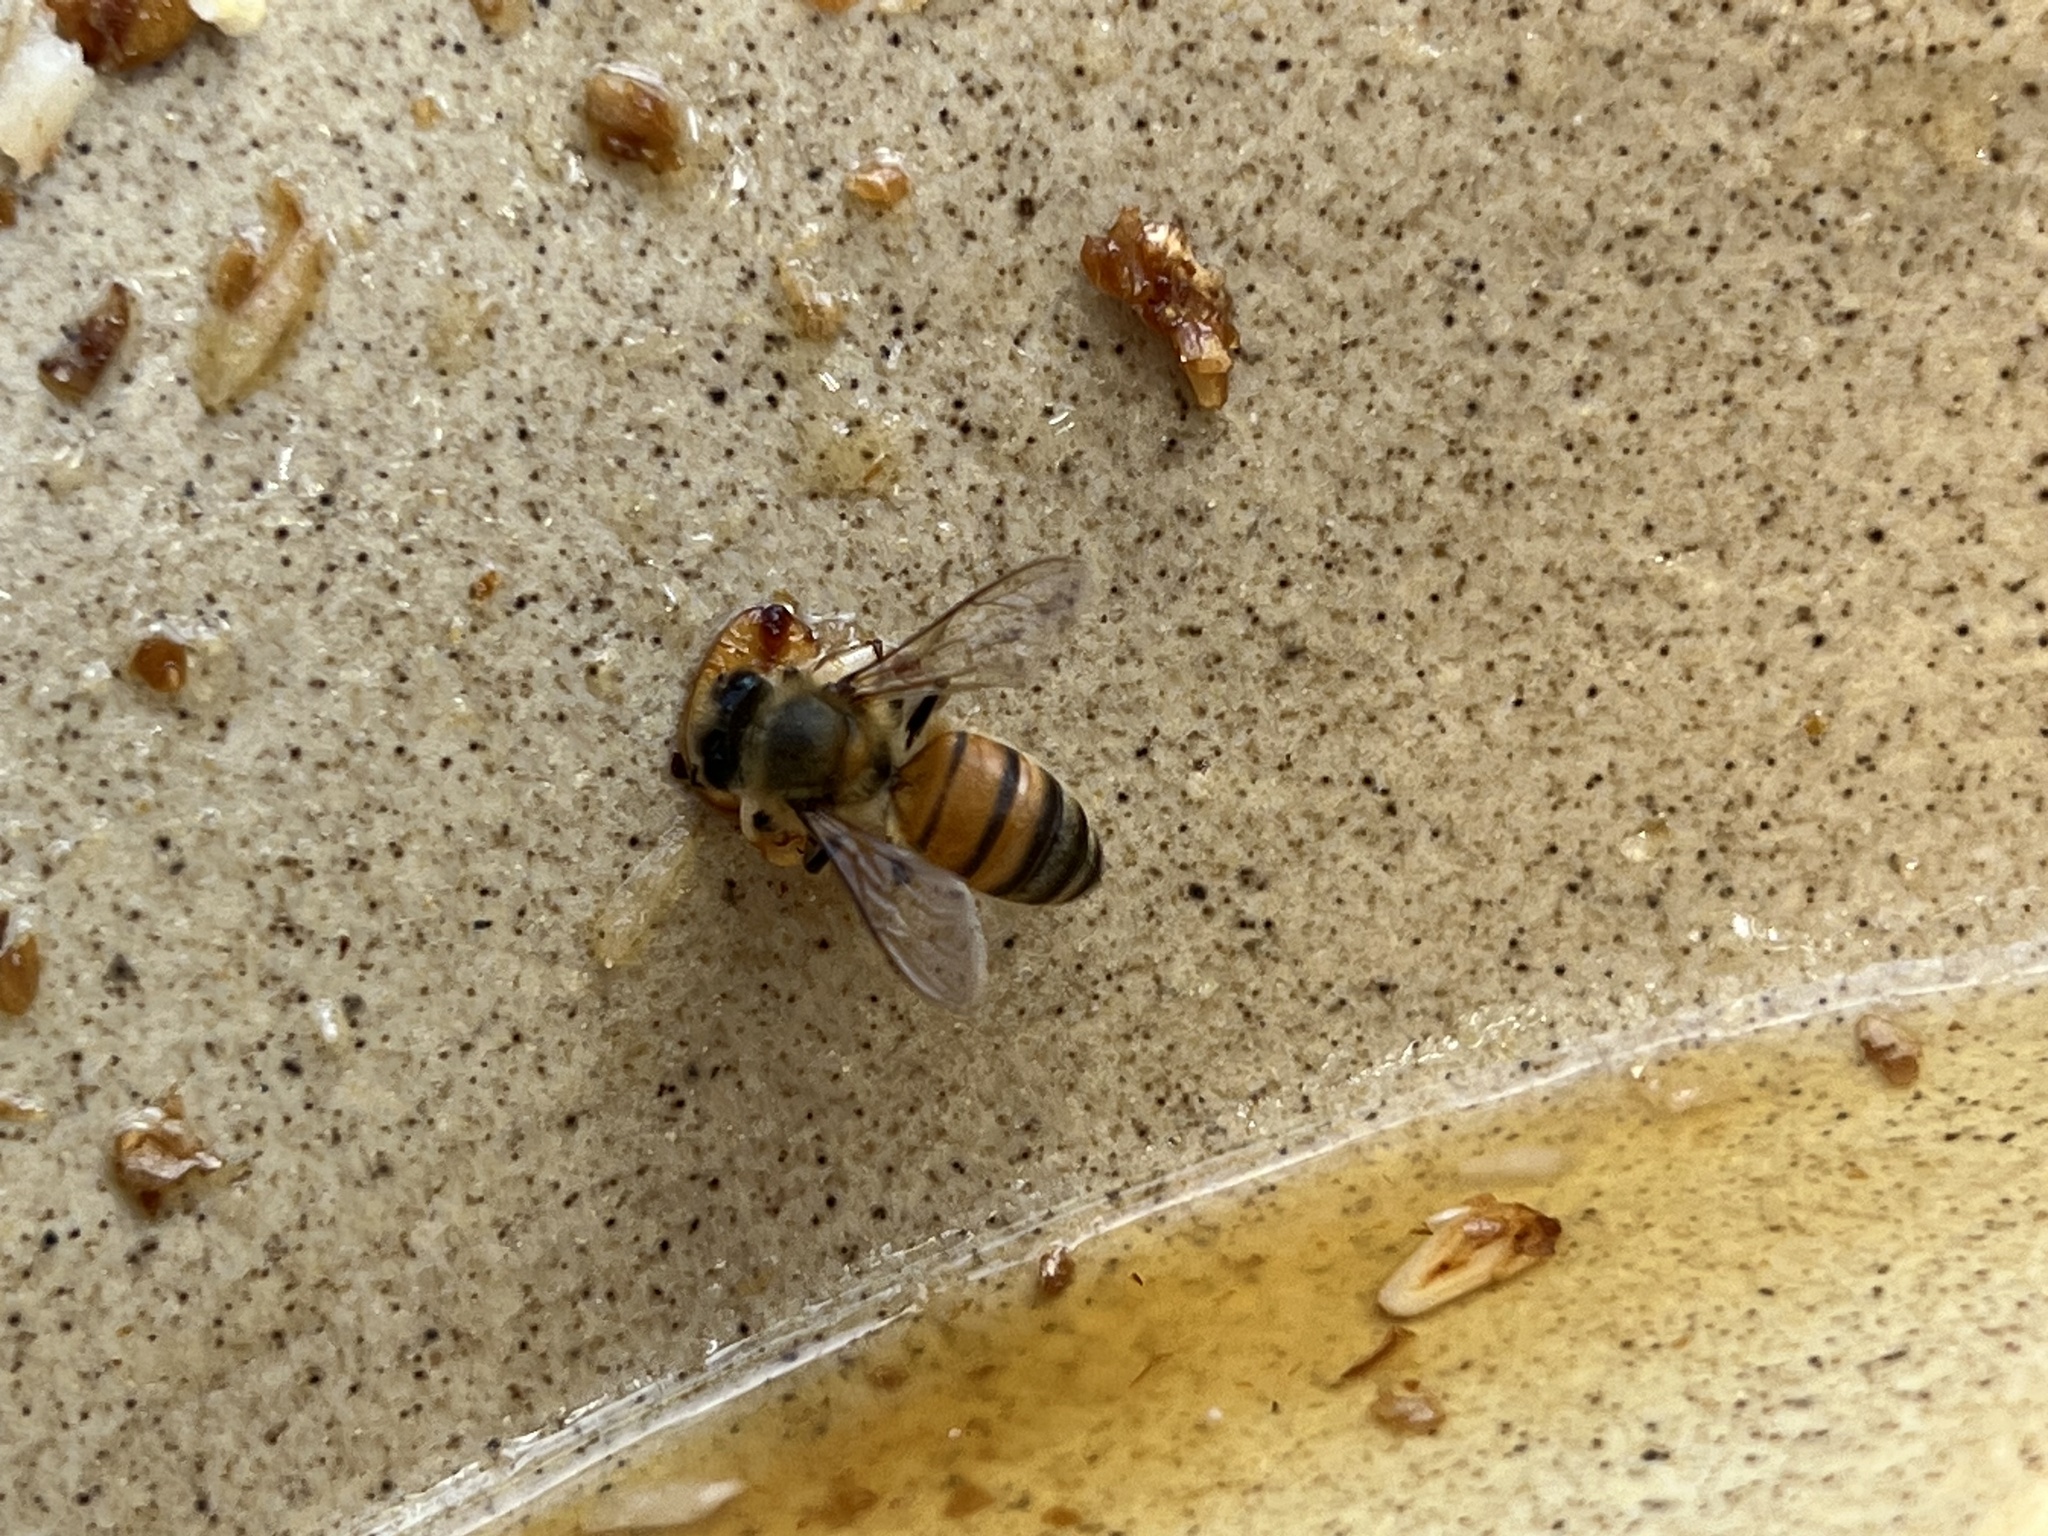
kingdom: Animalia
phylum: Arthropoda
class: Insecta
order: Hymenoptera
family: Apidae
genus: Apis
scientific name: Apis mellifera
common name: Honey bee
